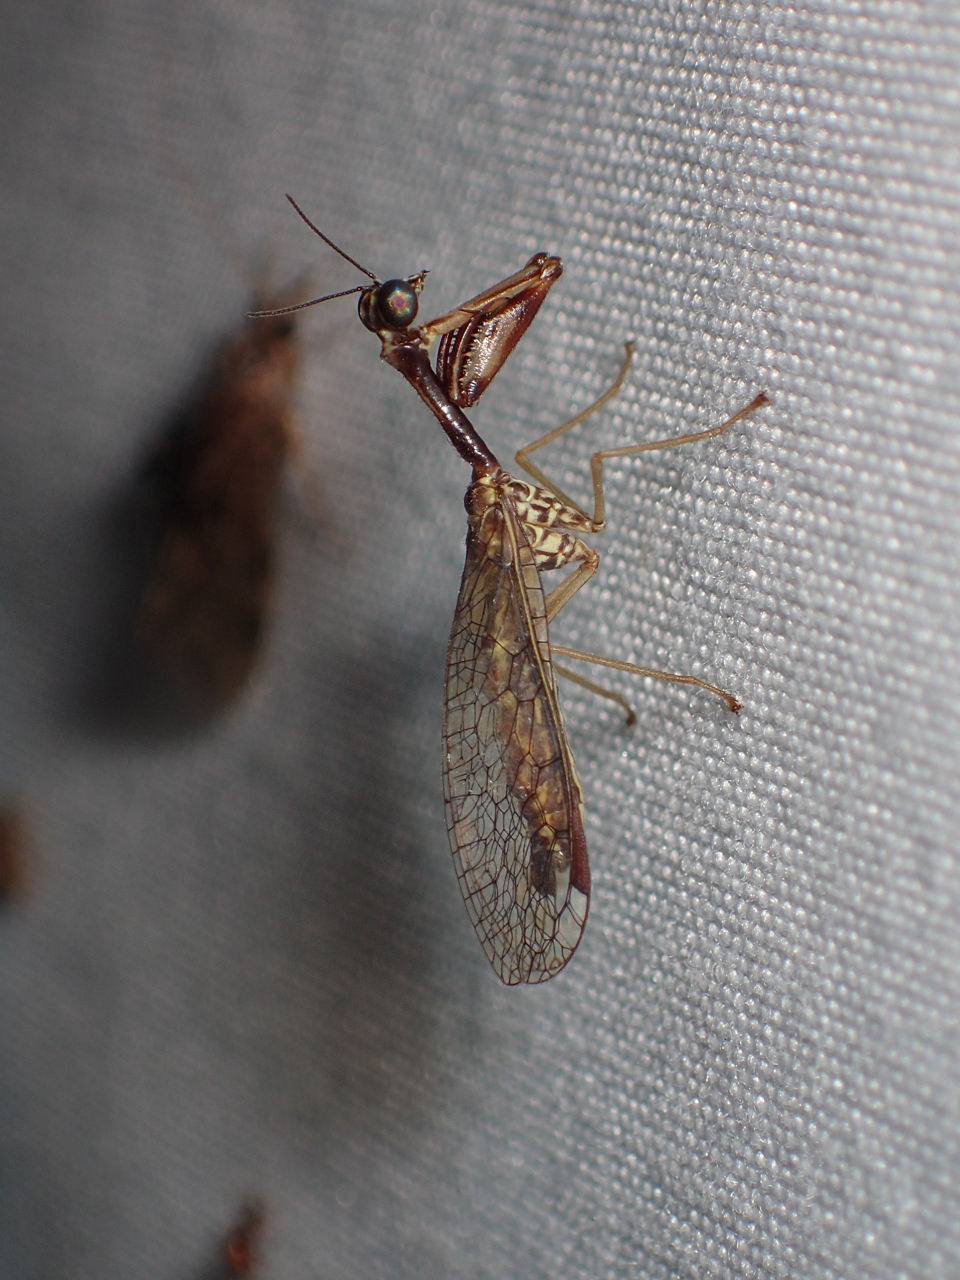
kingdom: Animalia
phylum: Arthropoda
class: Insecta
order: Neuroptera
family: Mantispidae
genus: Leptomantispa
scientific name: Leptomantispa pulchella
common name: Stevens's mantidfly
